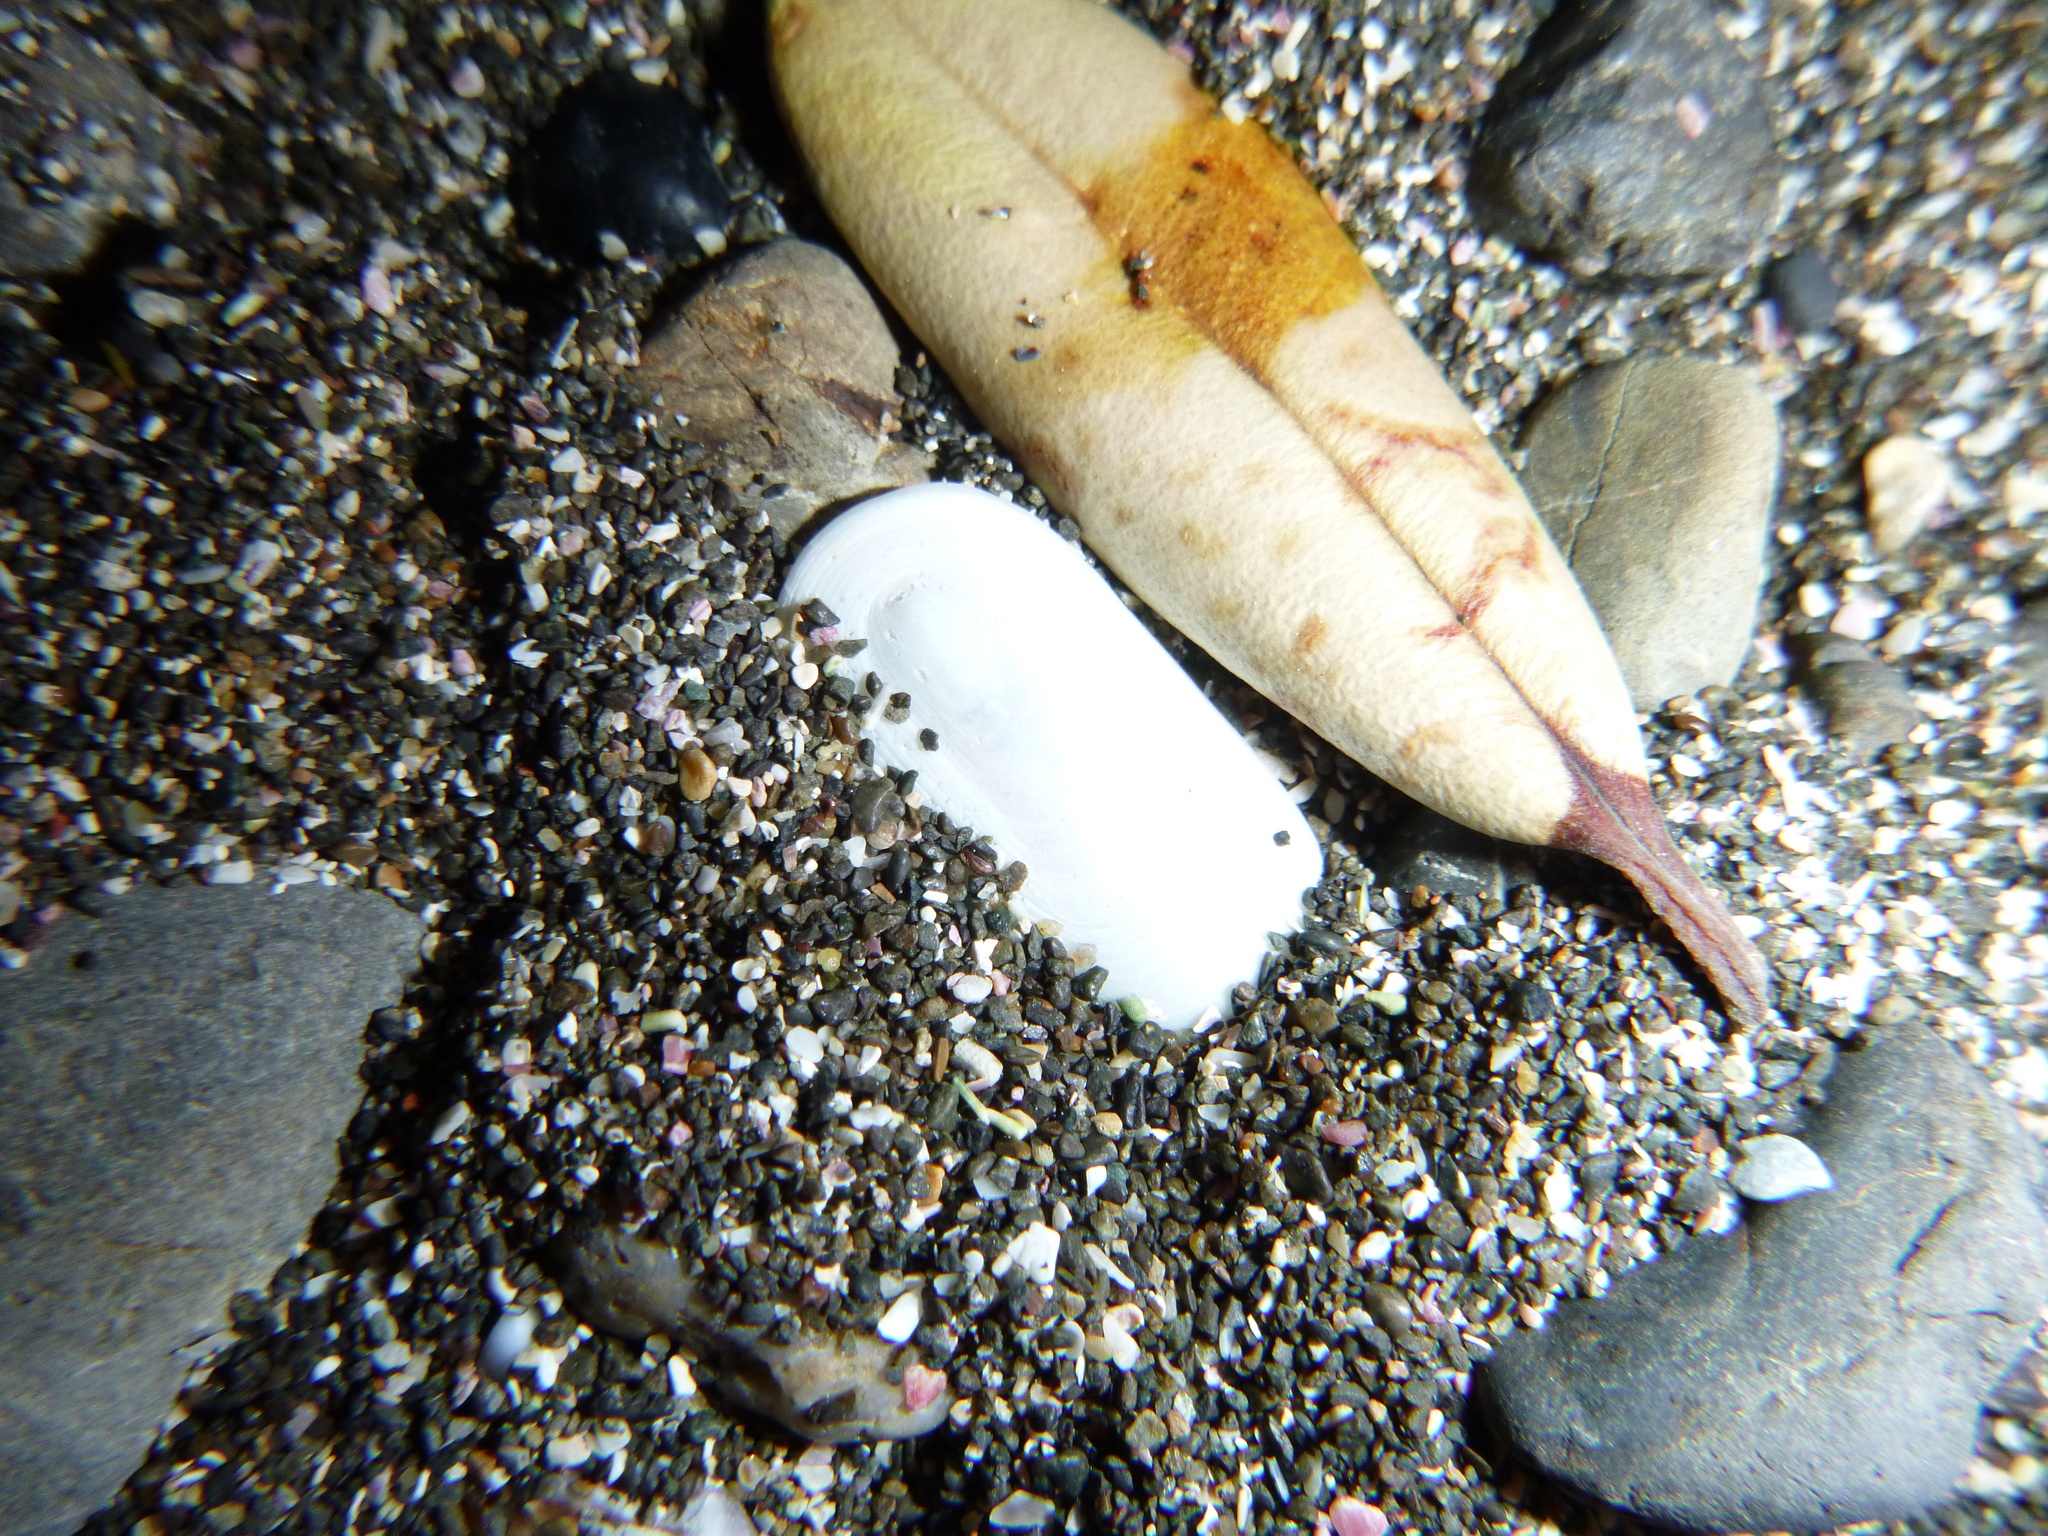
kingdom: Animalia
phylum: Mollusca
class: Gastropoda
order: Lepetellida
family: Fissurellidae
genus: Scutus
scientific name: Scutus breviculus
